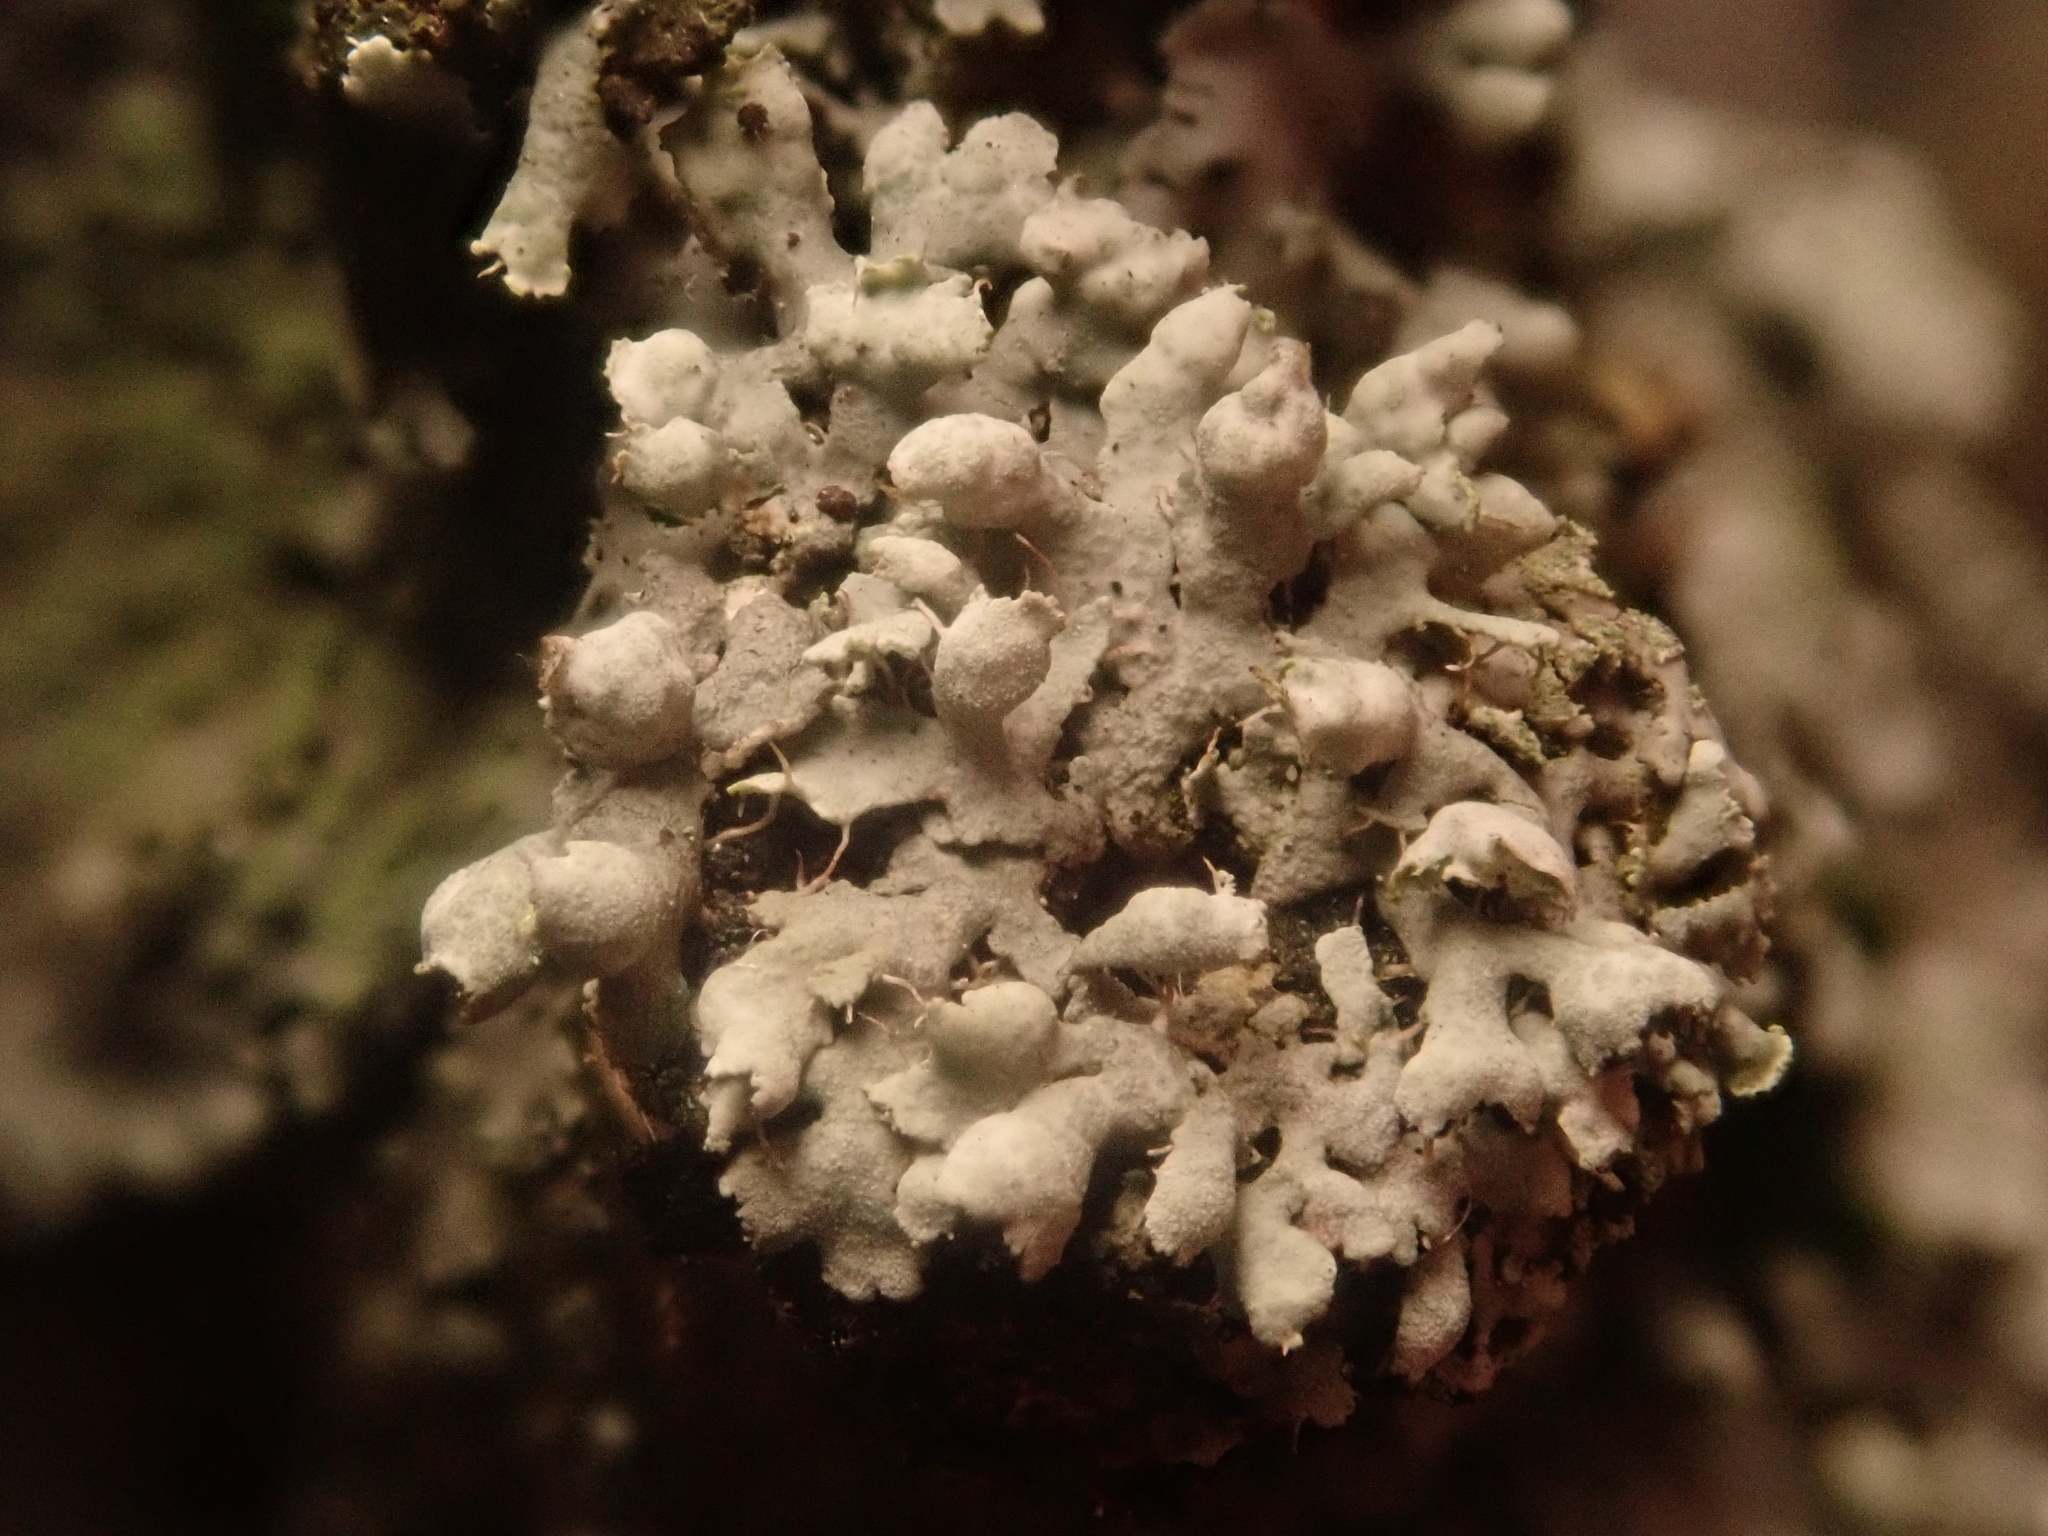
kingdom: Fungi
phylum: Ascomycota
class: Lecanoromycetes
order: Caliciales
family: Physciaceae
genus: Physcia
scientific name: Physcia adscendens
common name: Hooded rosette lichen
